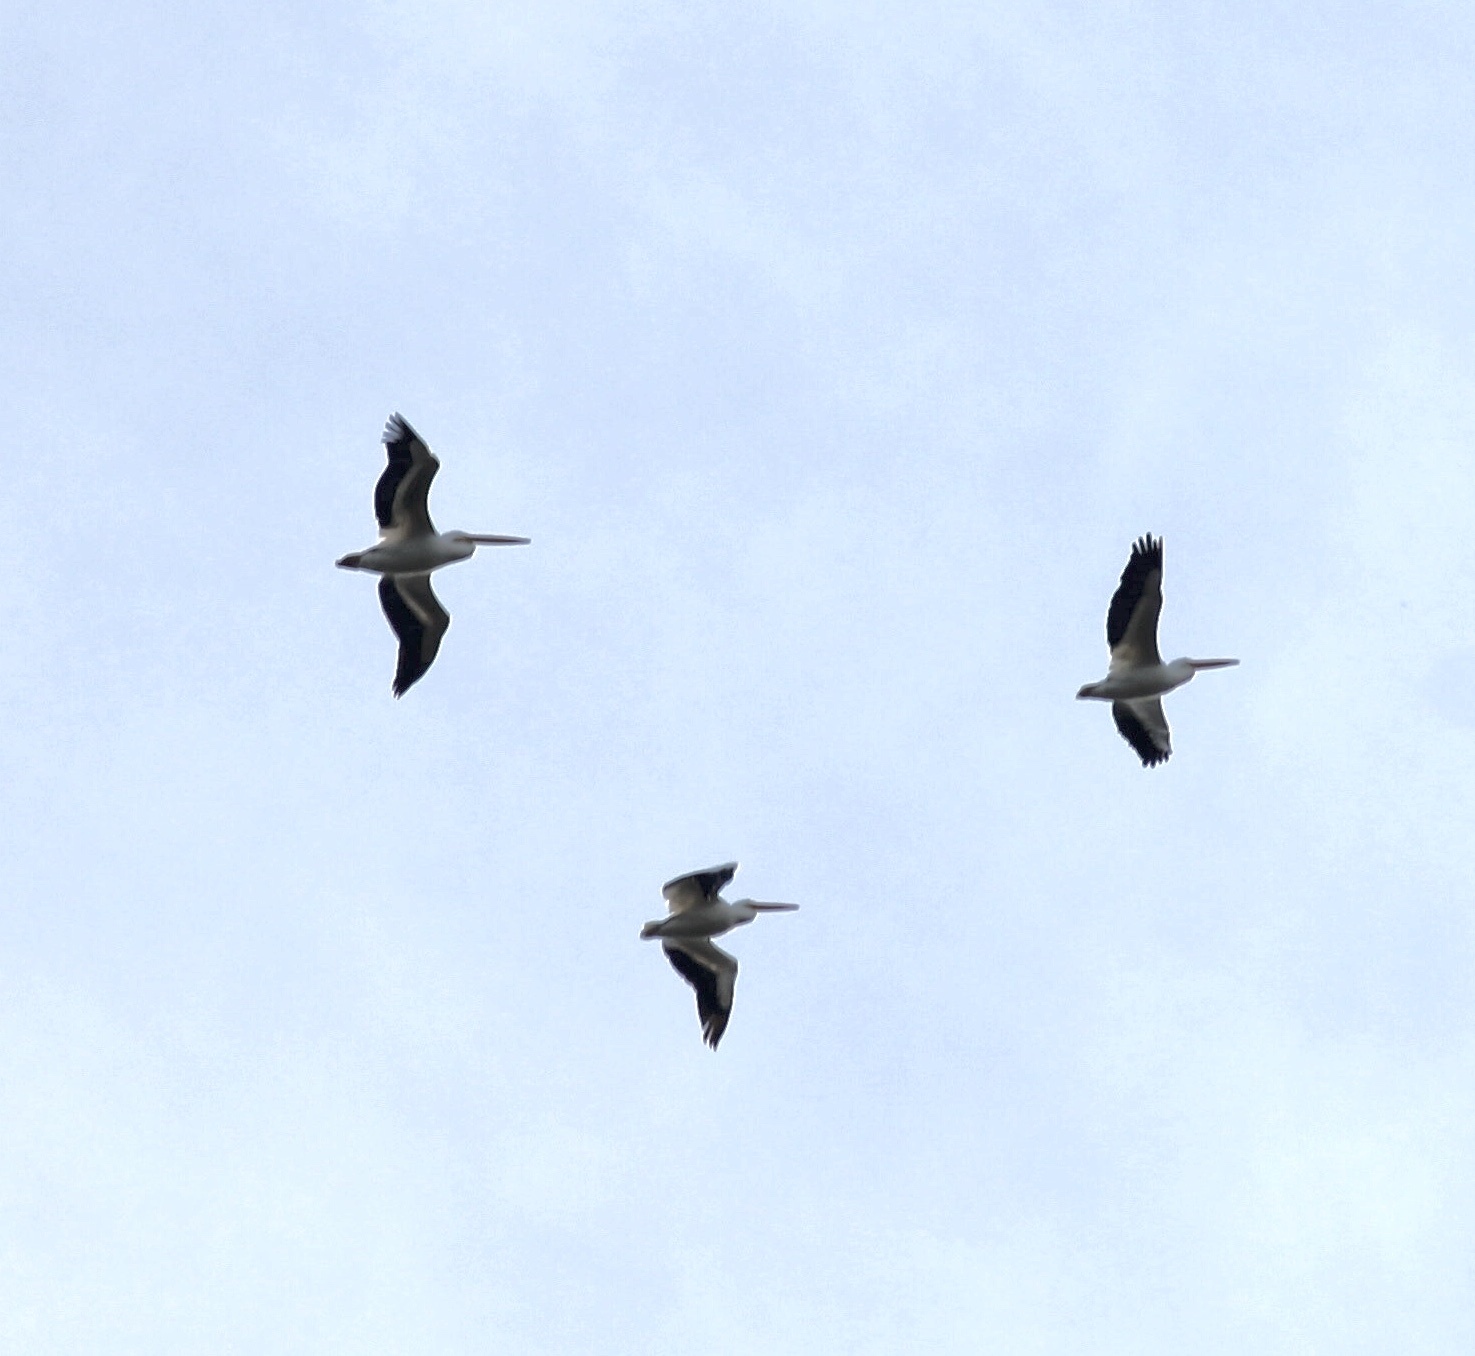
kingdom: Animalia
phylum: Chordata
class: Aves
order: Pelecaniformes
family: Pelecanidae
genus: Pelecanus
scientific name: Pelecanus erythrorhynchos
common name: American white pelican
